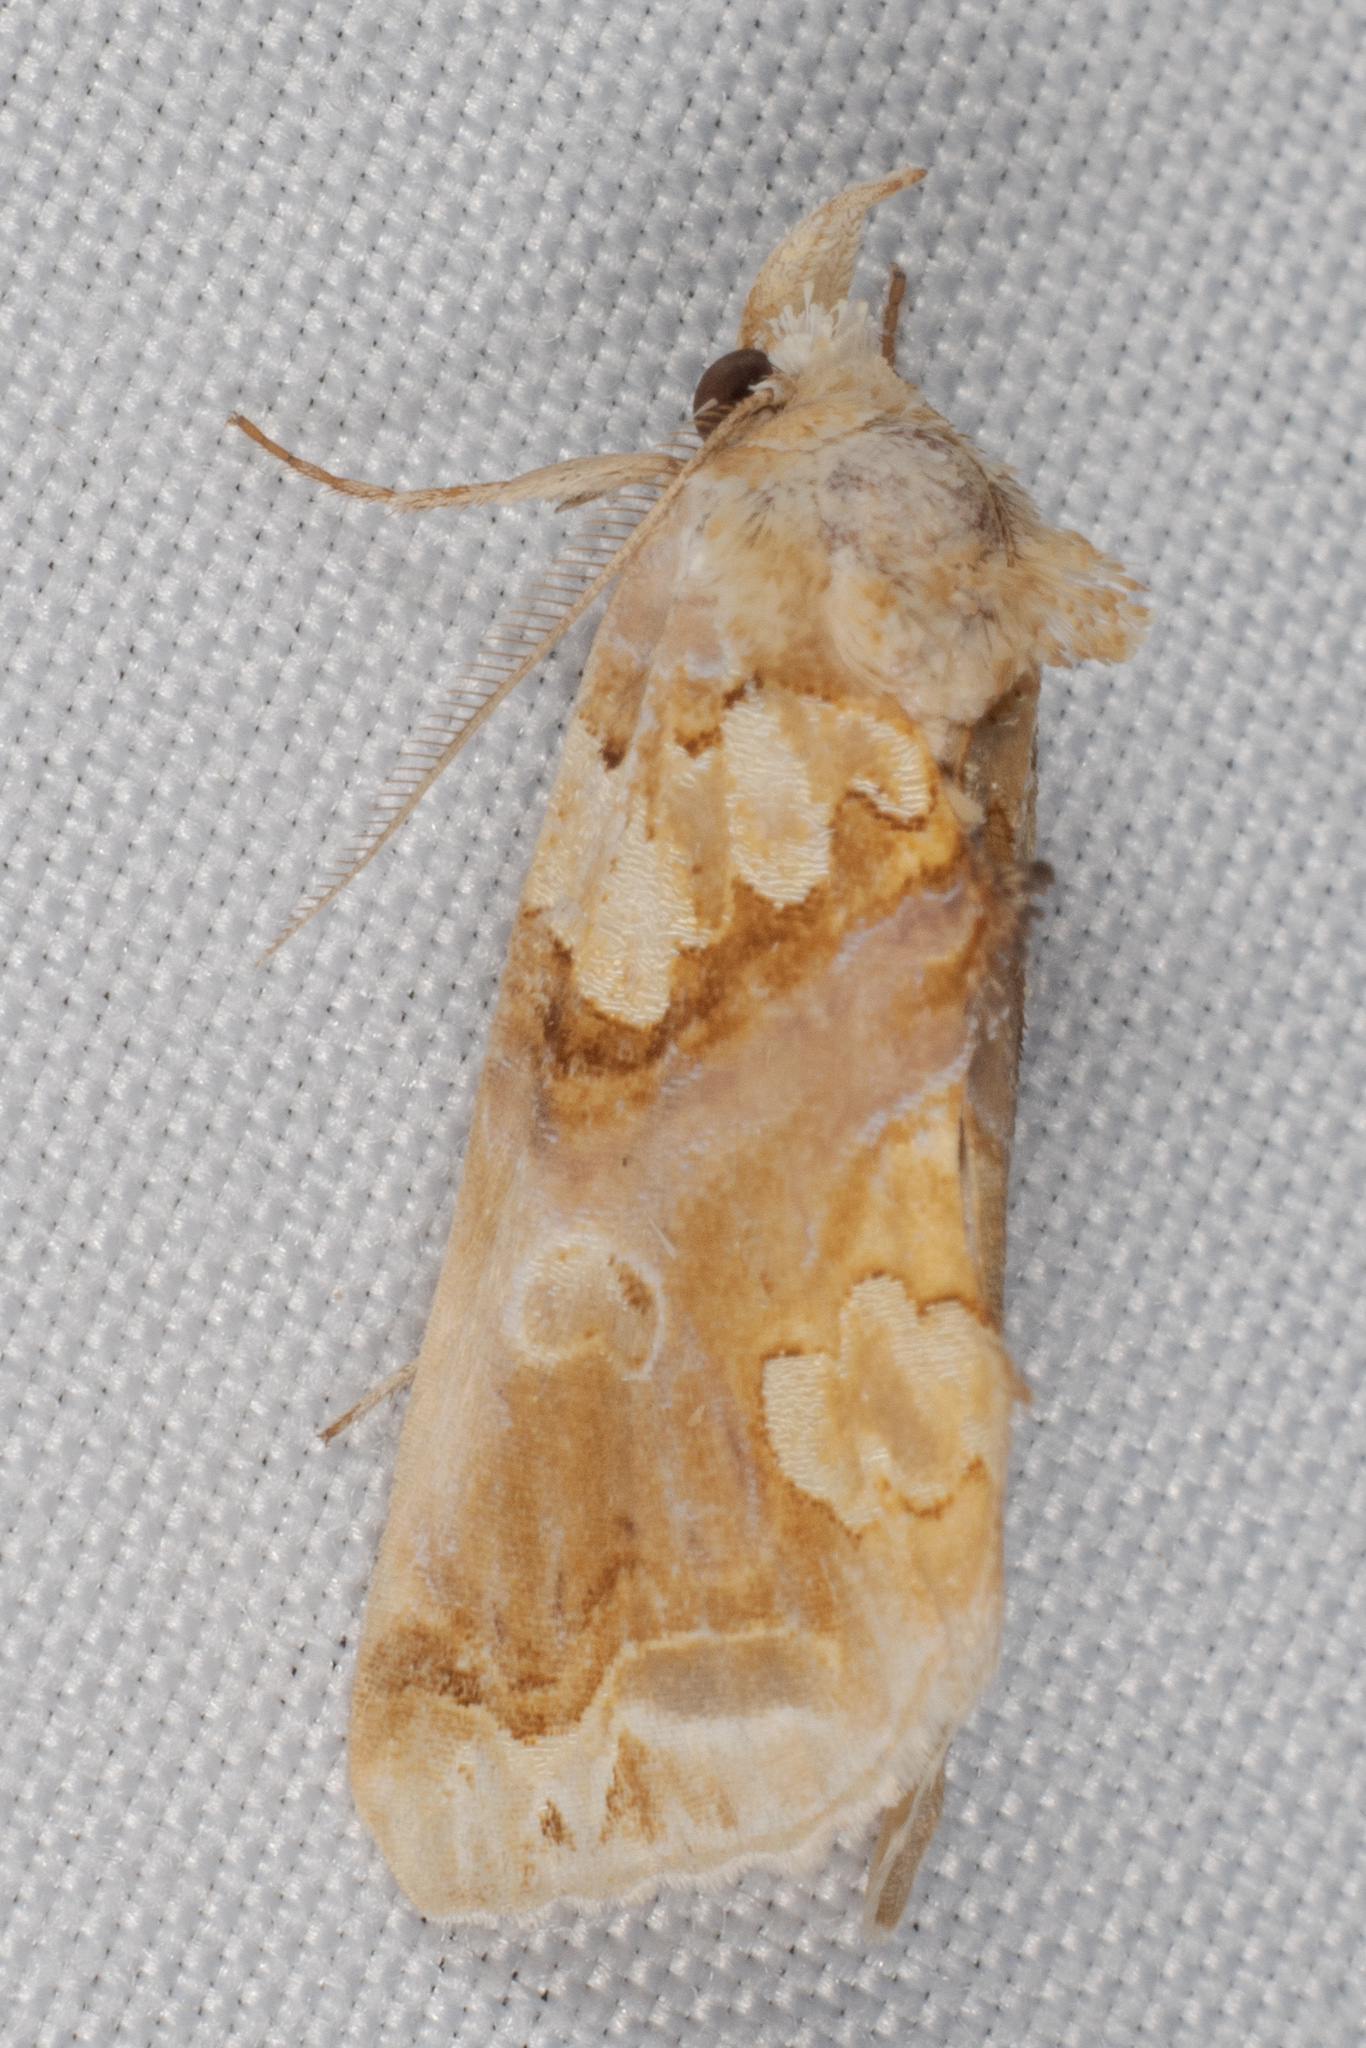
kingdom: Animalia
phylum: Arthropoda
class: Insecta
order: Lepidoptera
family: Erebidae
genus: Plusiodonta
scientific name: Plusiodonta compressipalpis
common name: Moonseed moth
